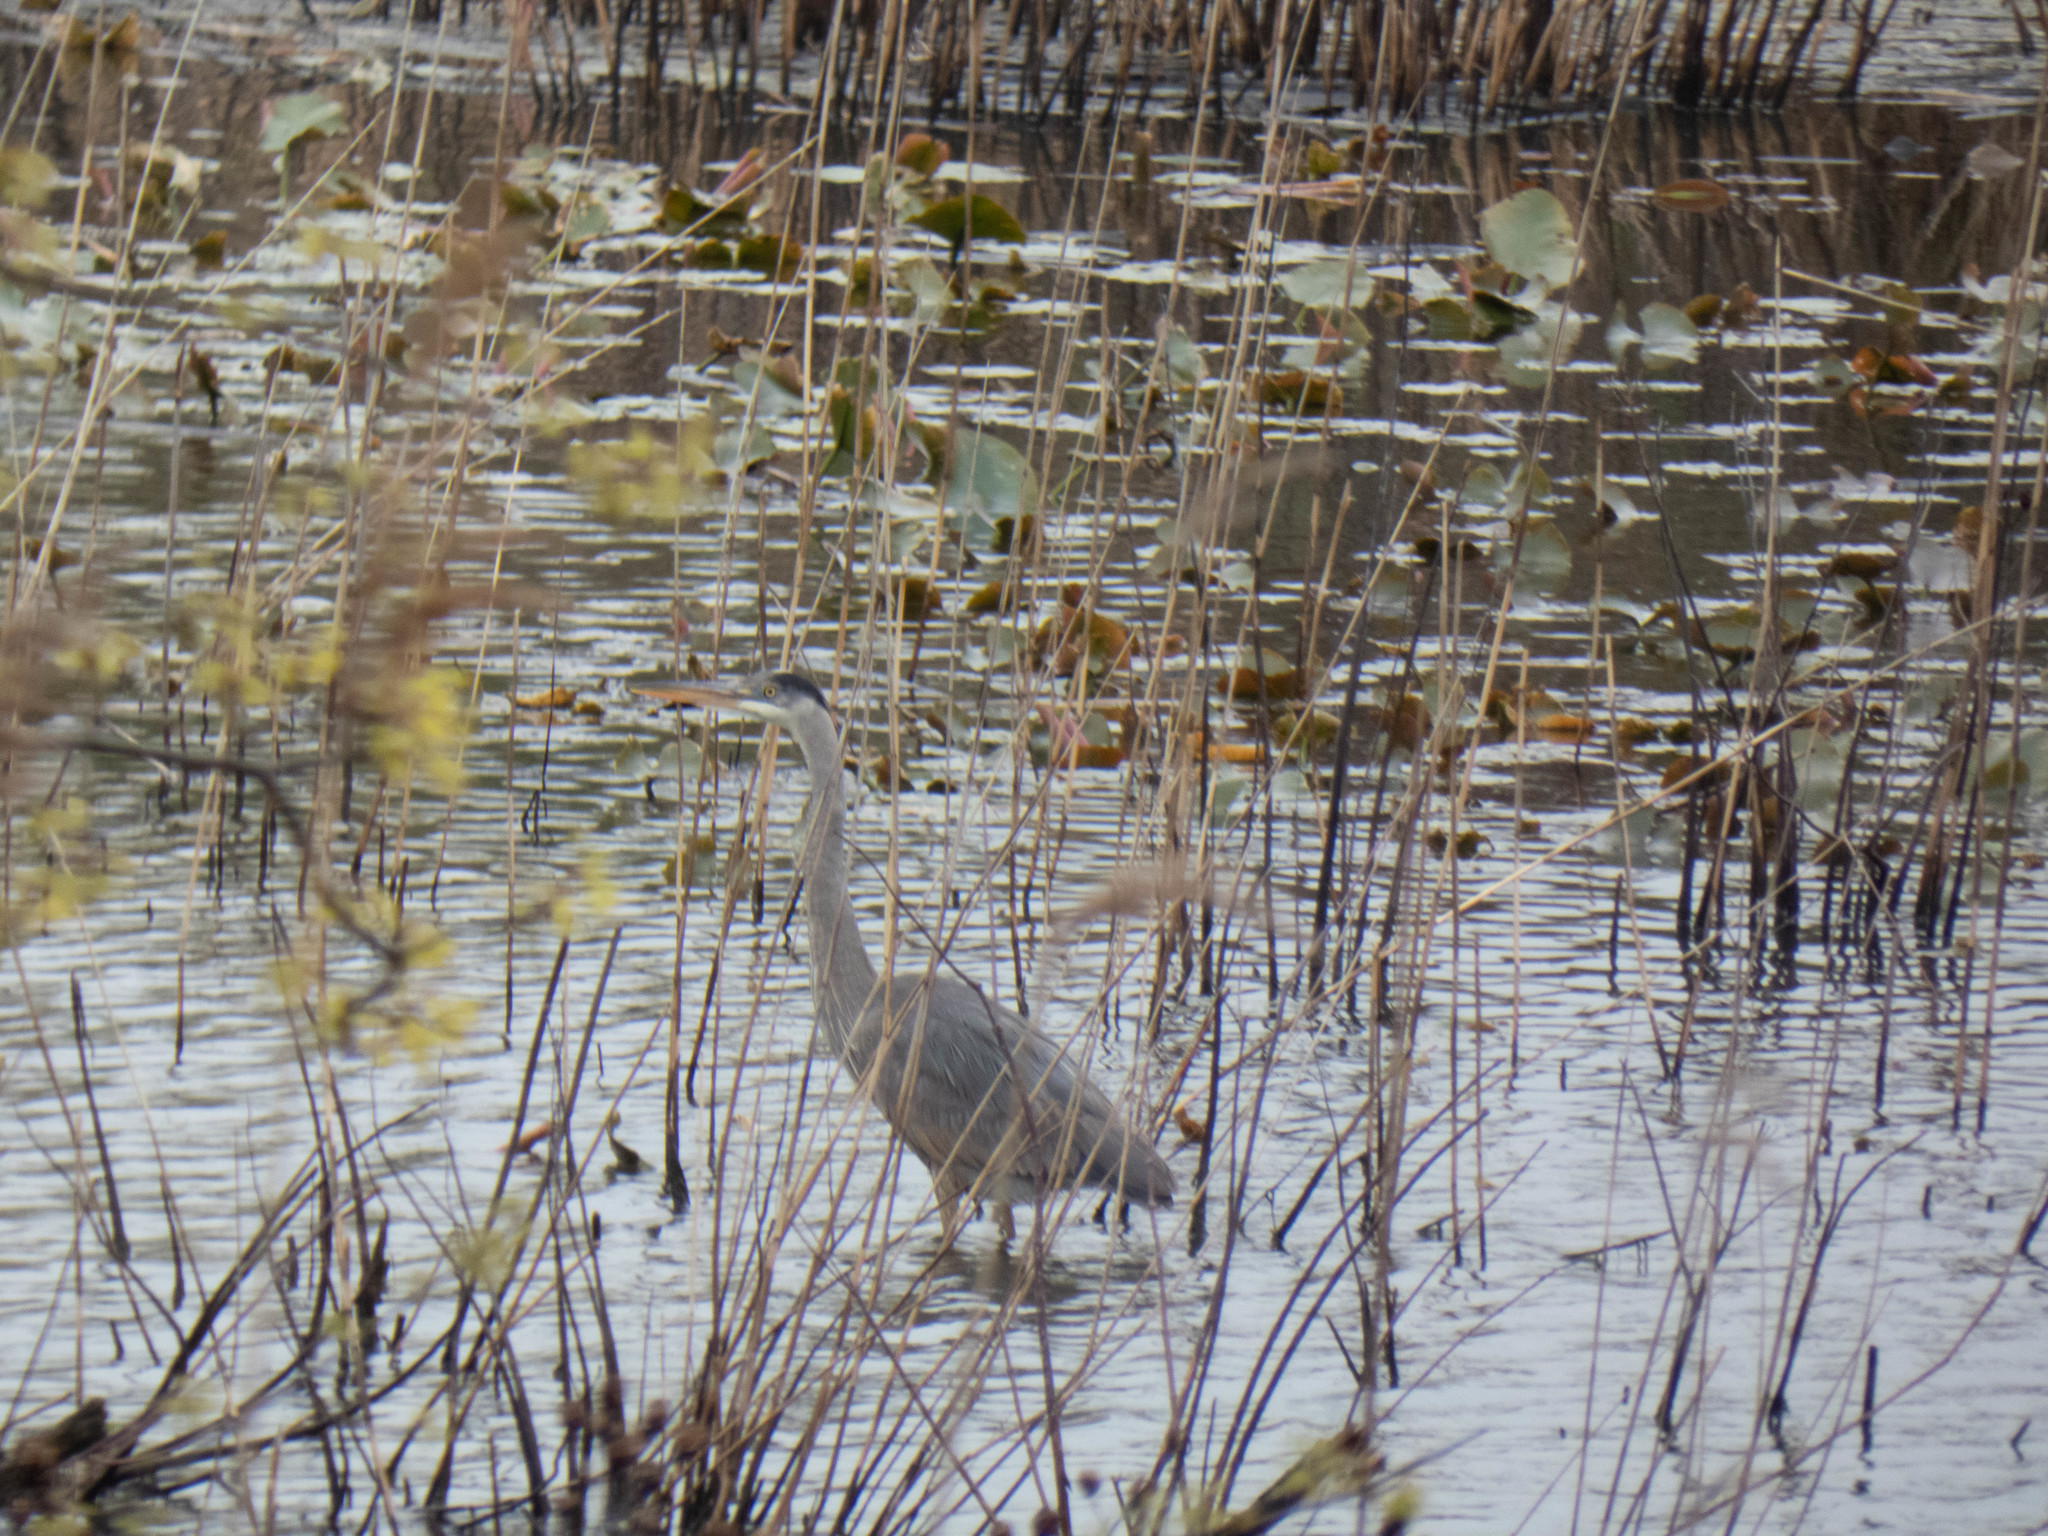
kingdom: Animalia
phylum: Chordata
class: Aves
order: Pelecaniformes
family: Ardeidae
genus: Ardea
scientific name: Ardea herodias
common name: Great blue heron
